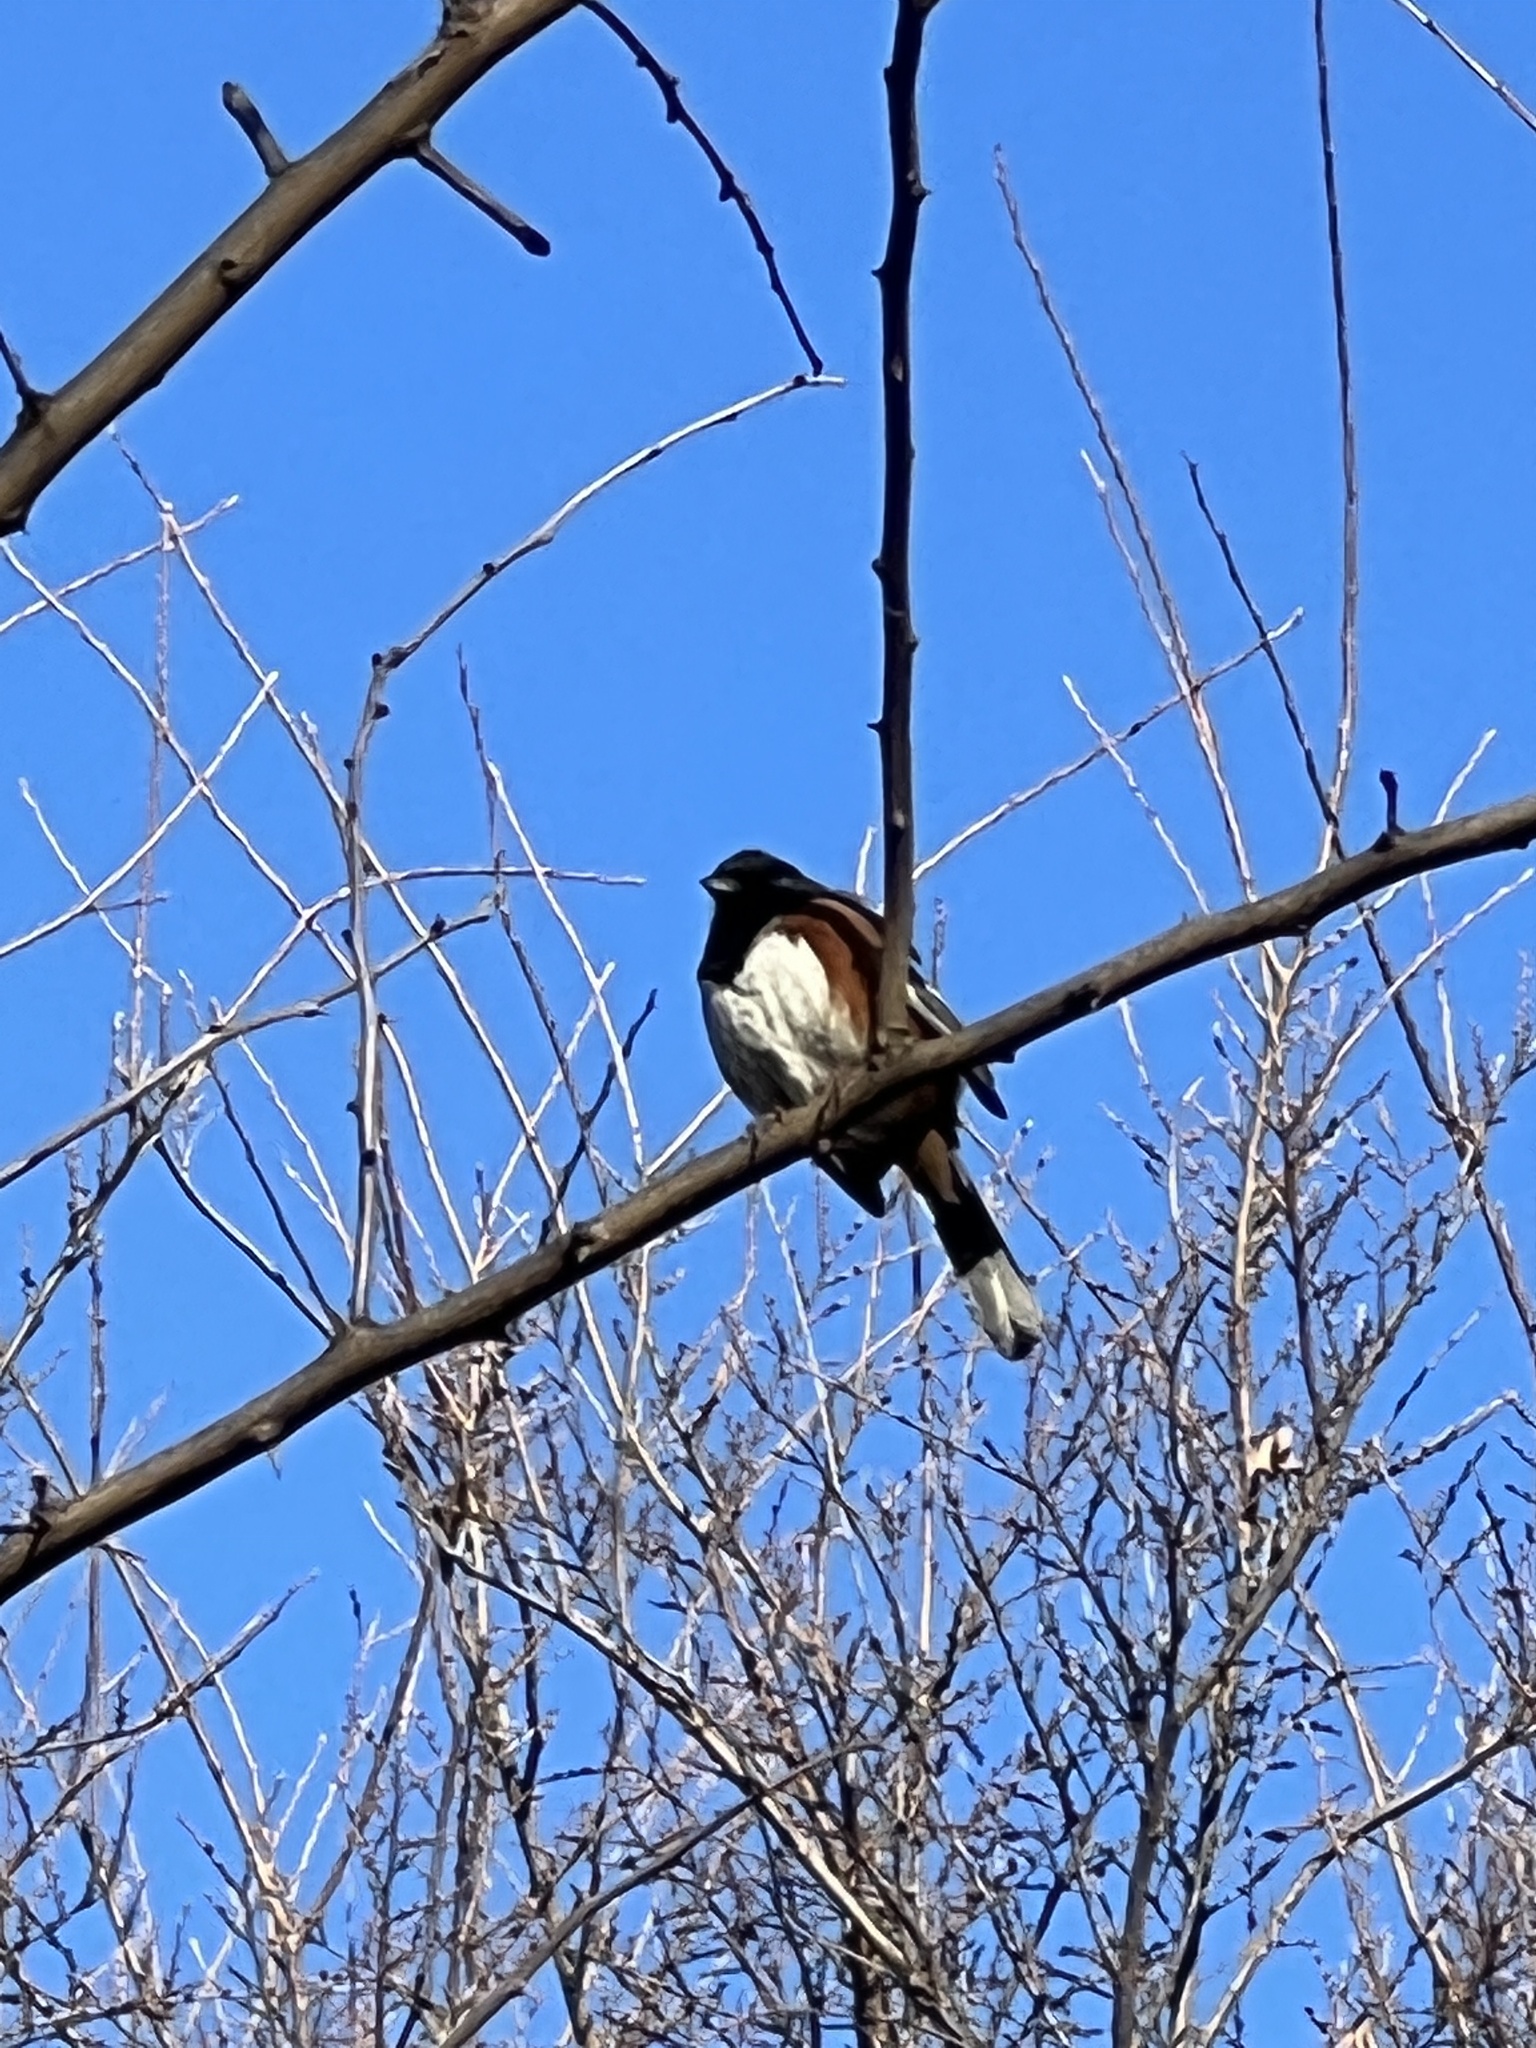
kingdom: Animalia
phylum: Chordata
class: Aves
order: Passeriformes
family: Passerellidae
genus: Pipilo
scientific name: Pipilo erythrophthalmus
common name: Eastern towhee
